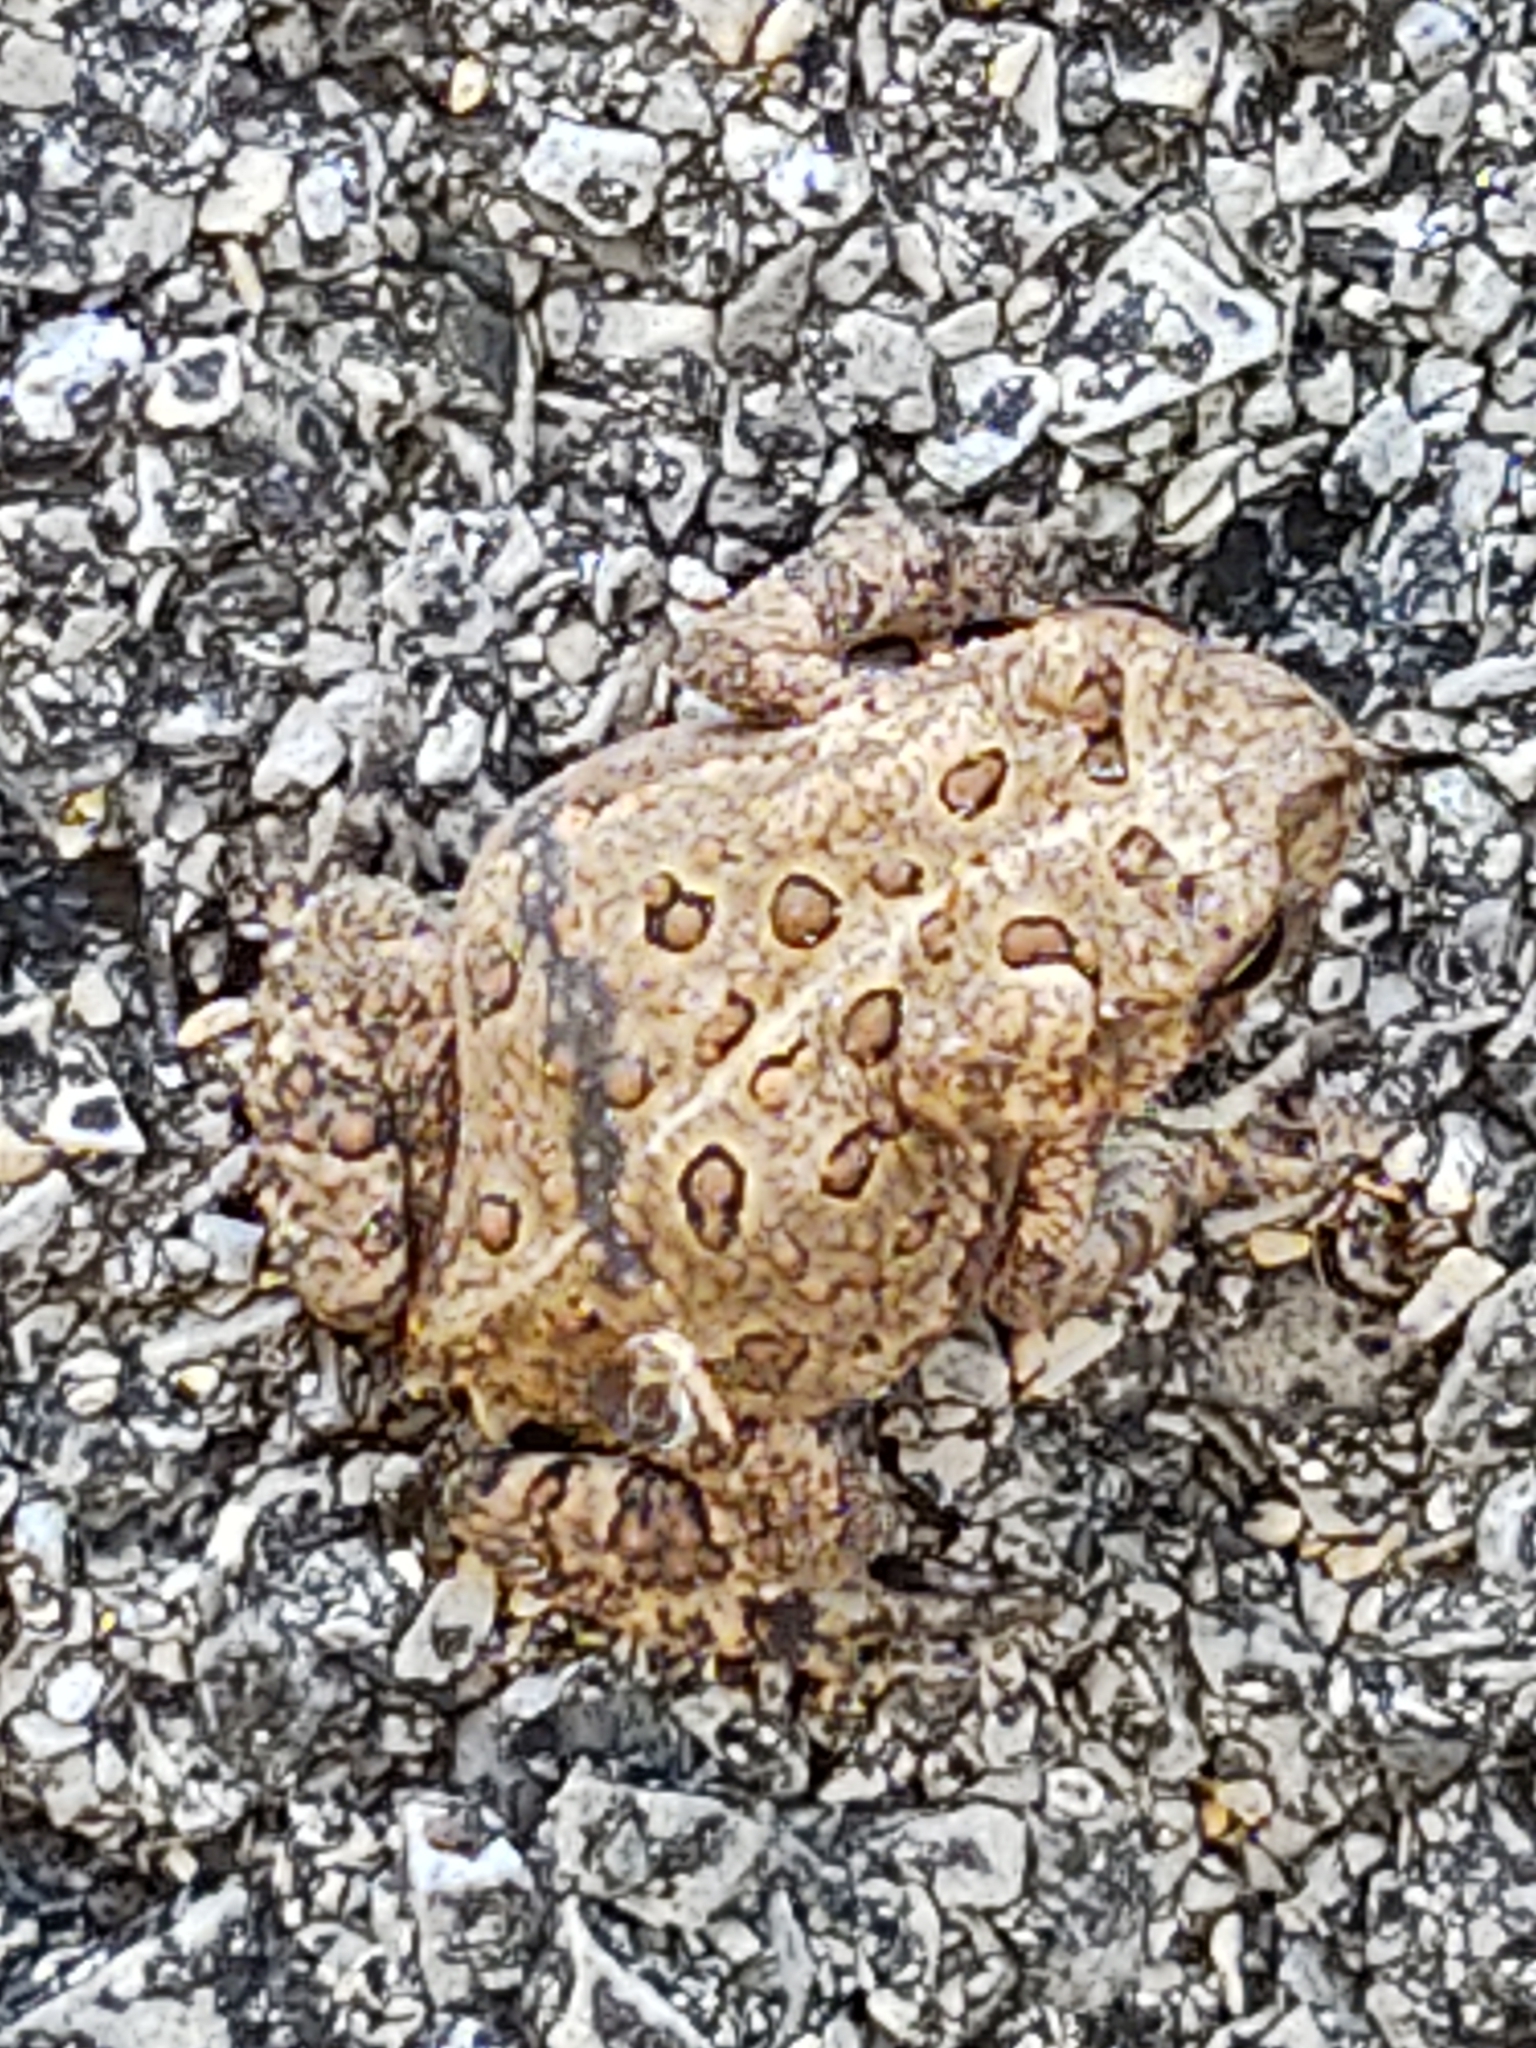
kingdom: Animalia
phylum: Chordata
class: Amphibia
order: Anura
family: Bufonidae
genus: Anaxyrus
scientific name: Anaxyrus americanus
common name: American toad
